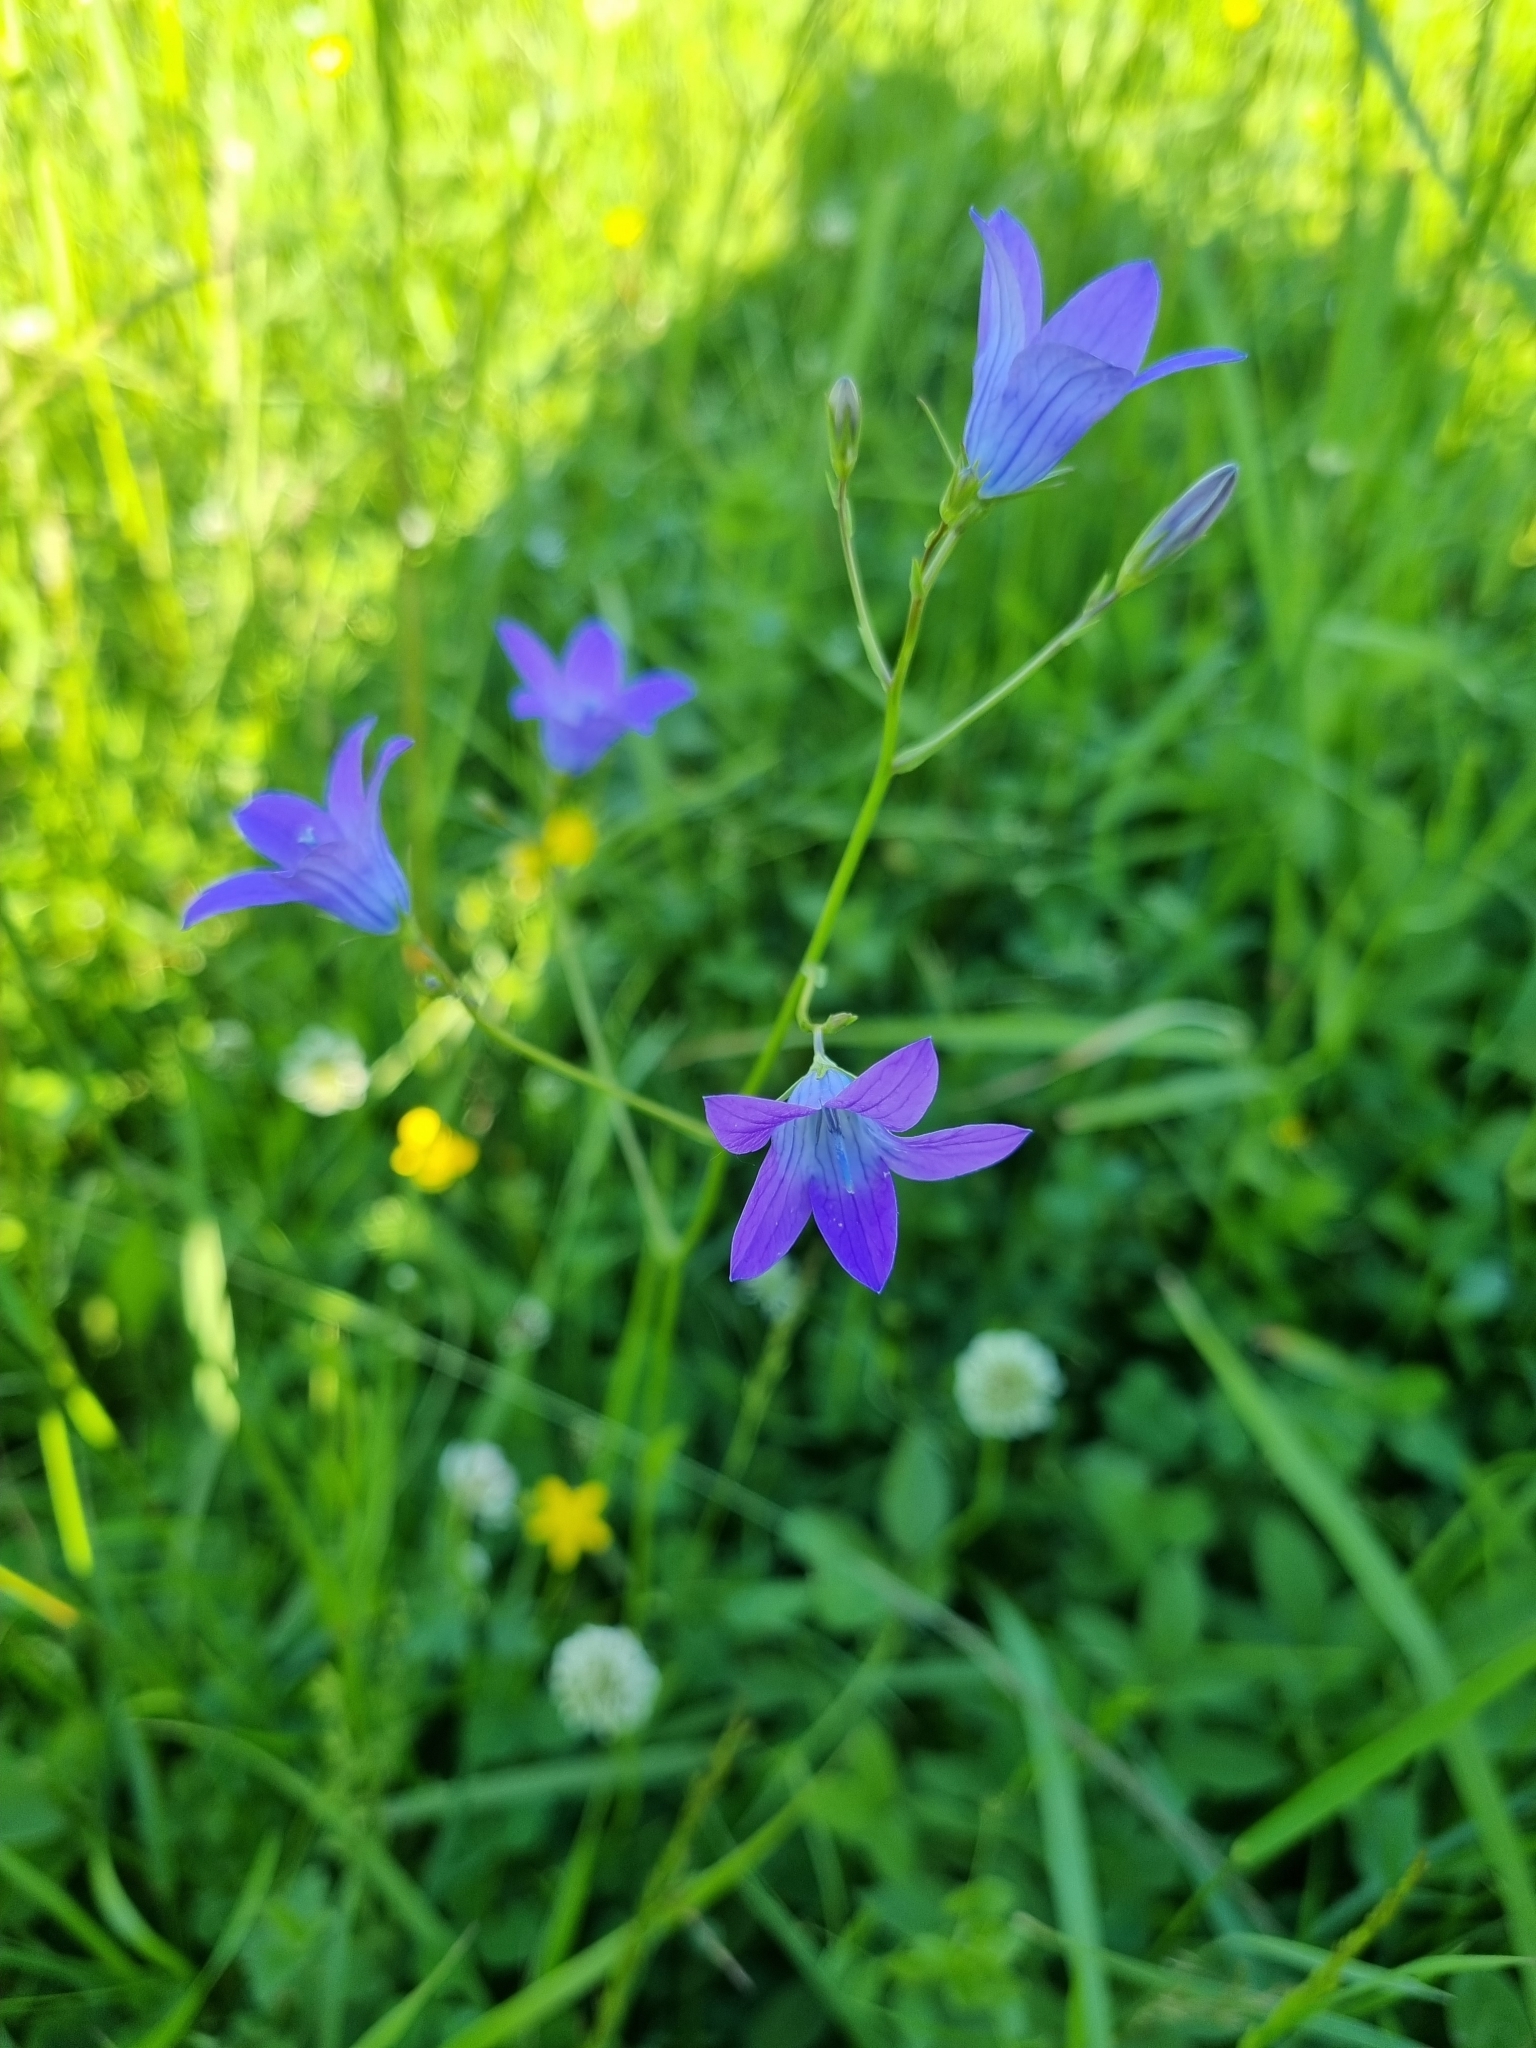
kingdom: Plantae
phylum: Tracheophyta
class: Magnoliopsida
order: Asterales
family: Campanulaceae
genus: Campanula
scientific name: Campanula patula
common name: Spreading bellflower
